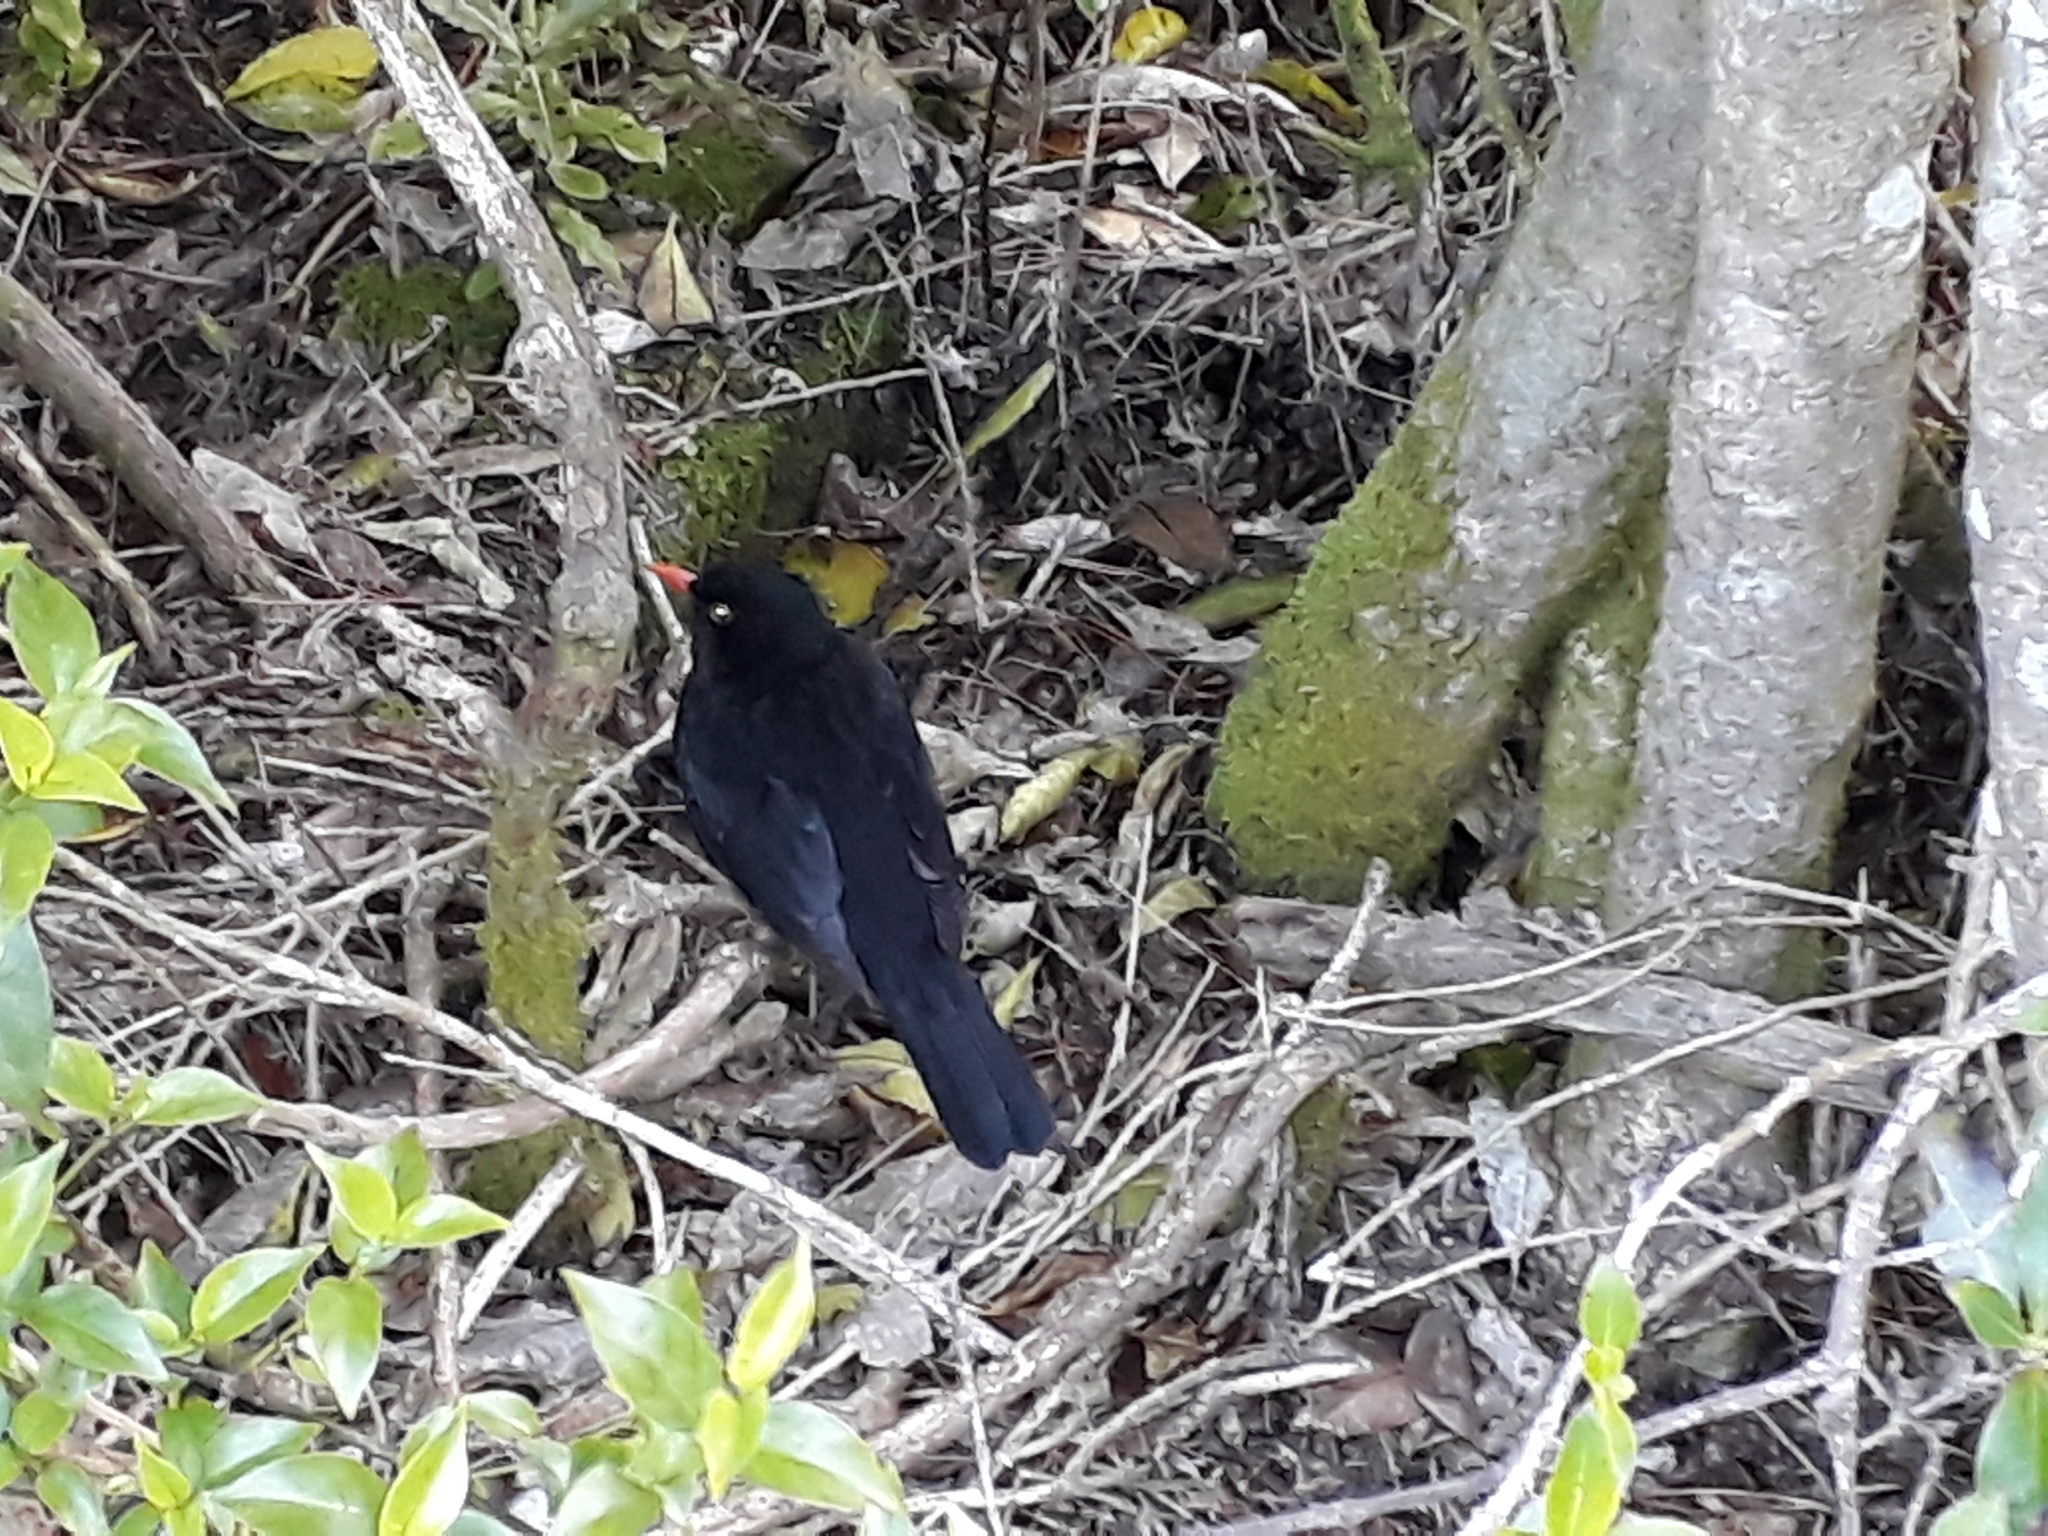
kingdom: Animalia
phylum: Chordata
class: Aves
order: Passeriformes
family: Turdidae
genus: Turdus
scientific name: Turdus merula
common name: Common blackbird
